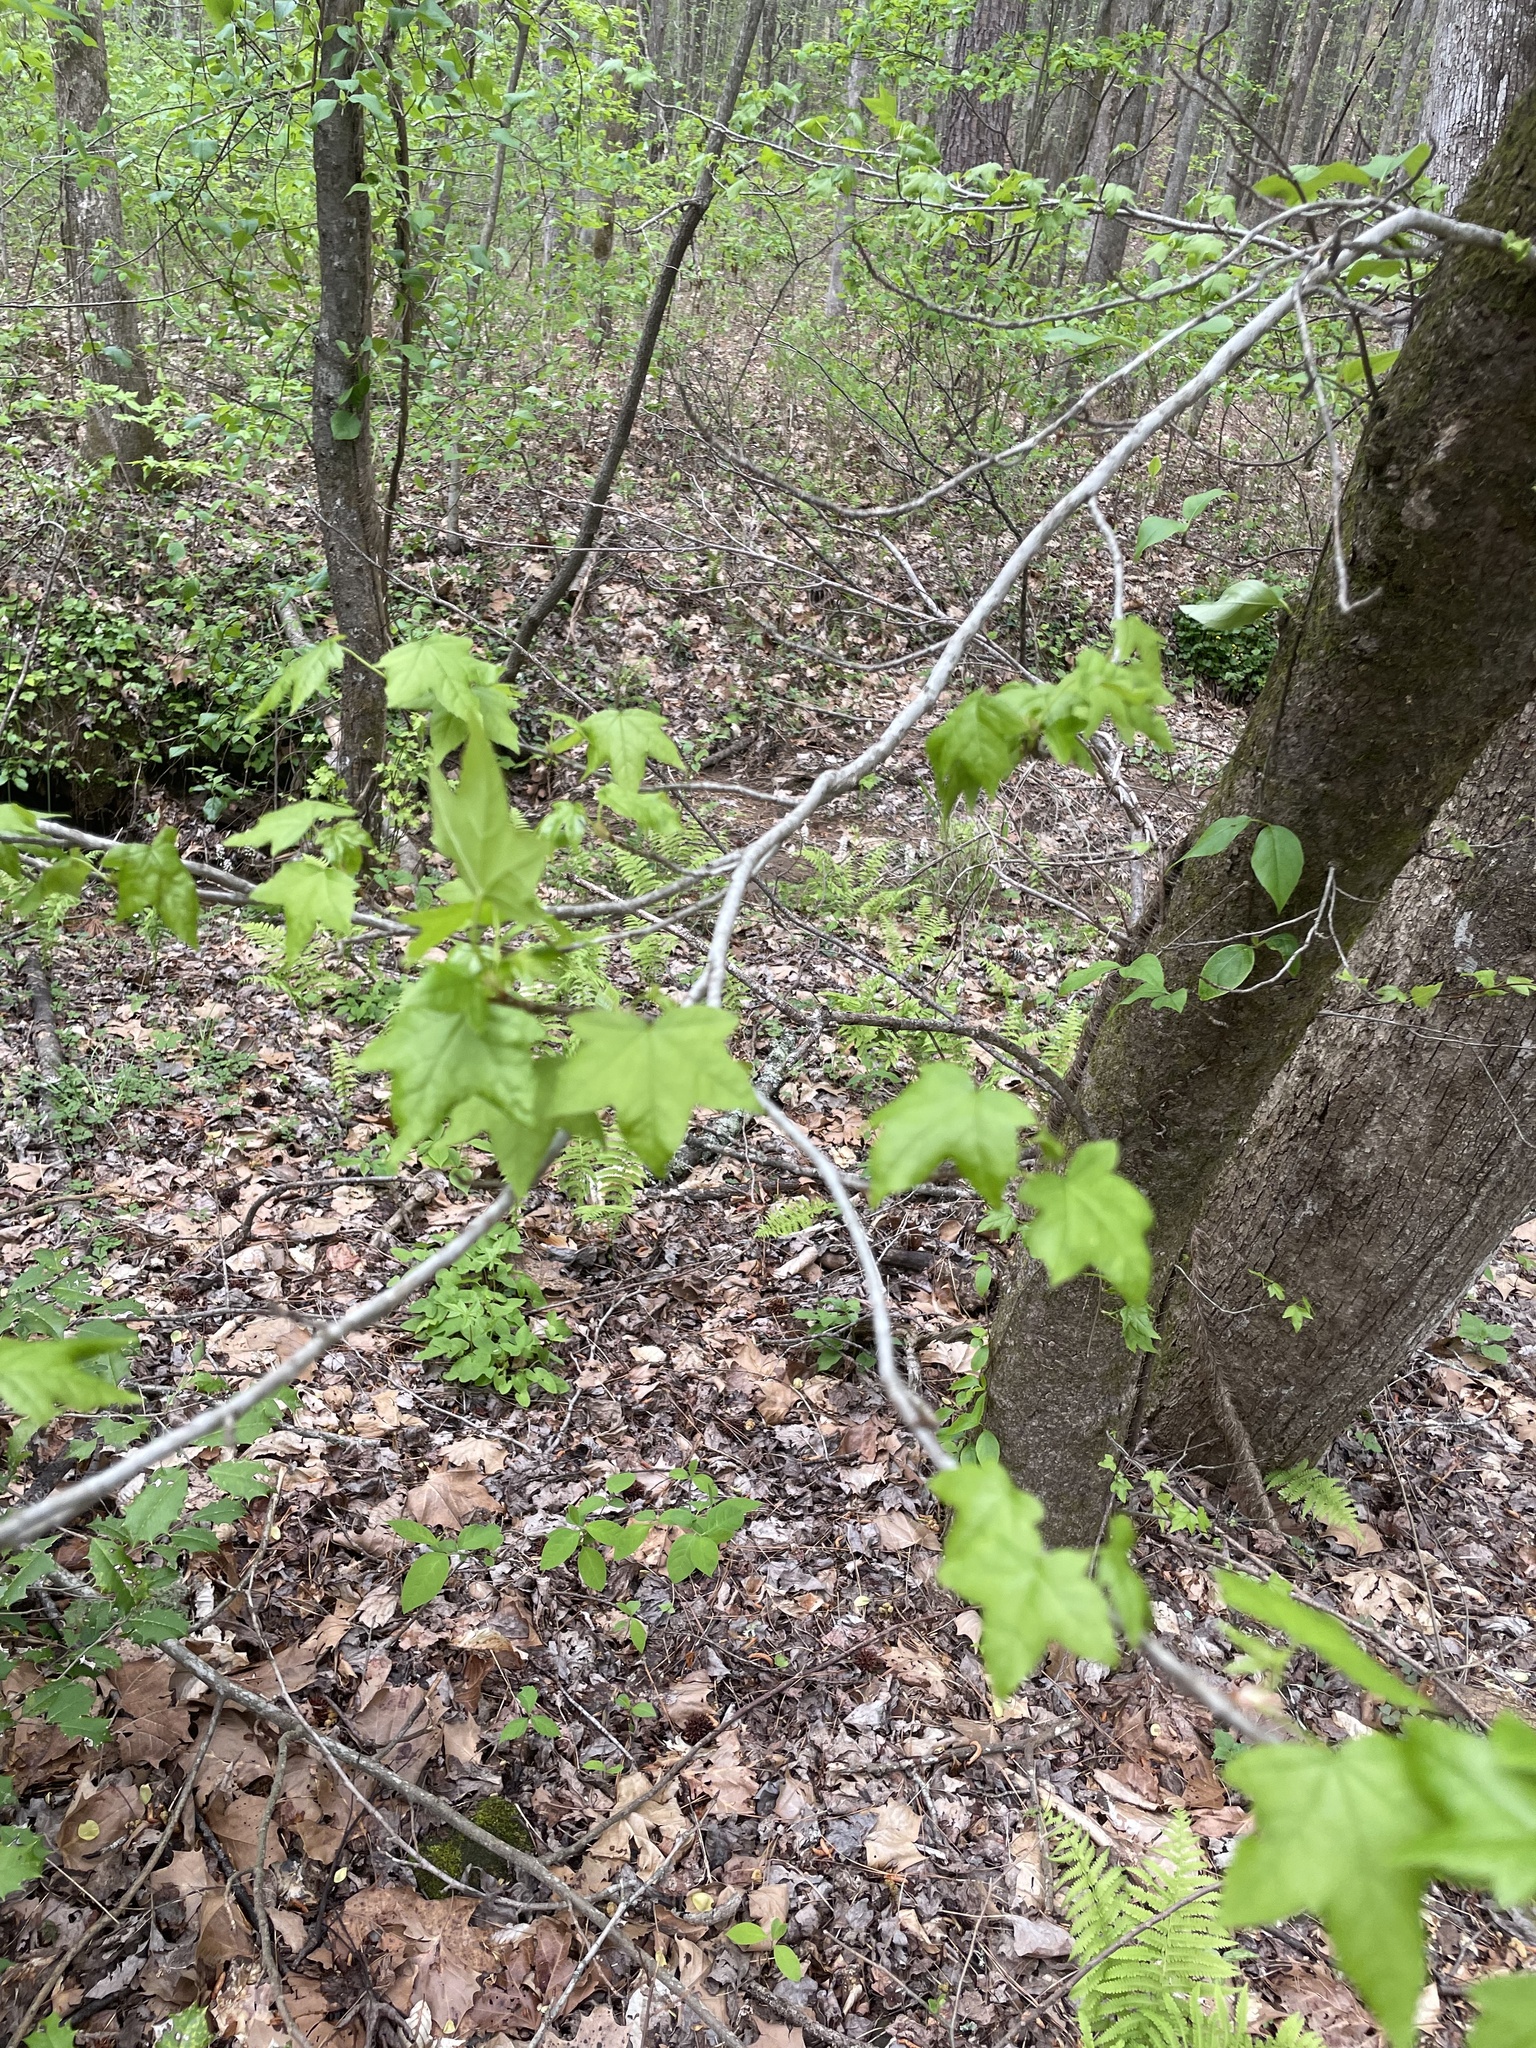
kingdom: Plantae
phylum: Tracheophyta
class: Magnoliopsida
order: Saxifragales
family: Altingiaceae
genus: Liquidambar
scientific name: Liquidambar styraciflua
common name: Sweet gum
